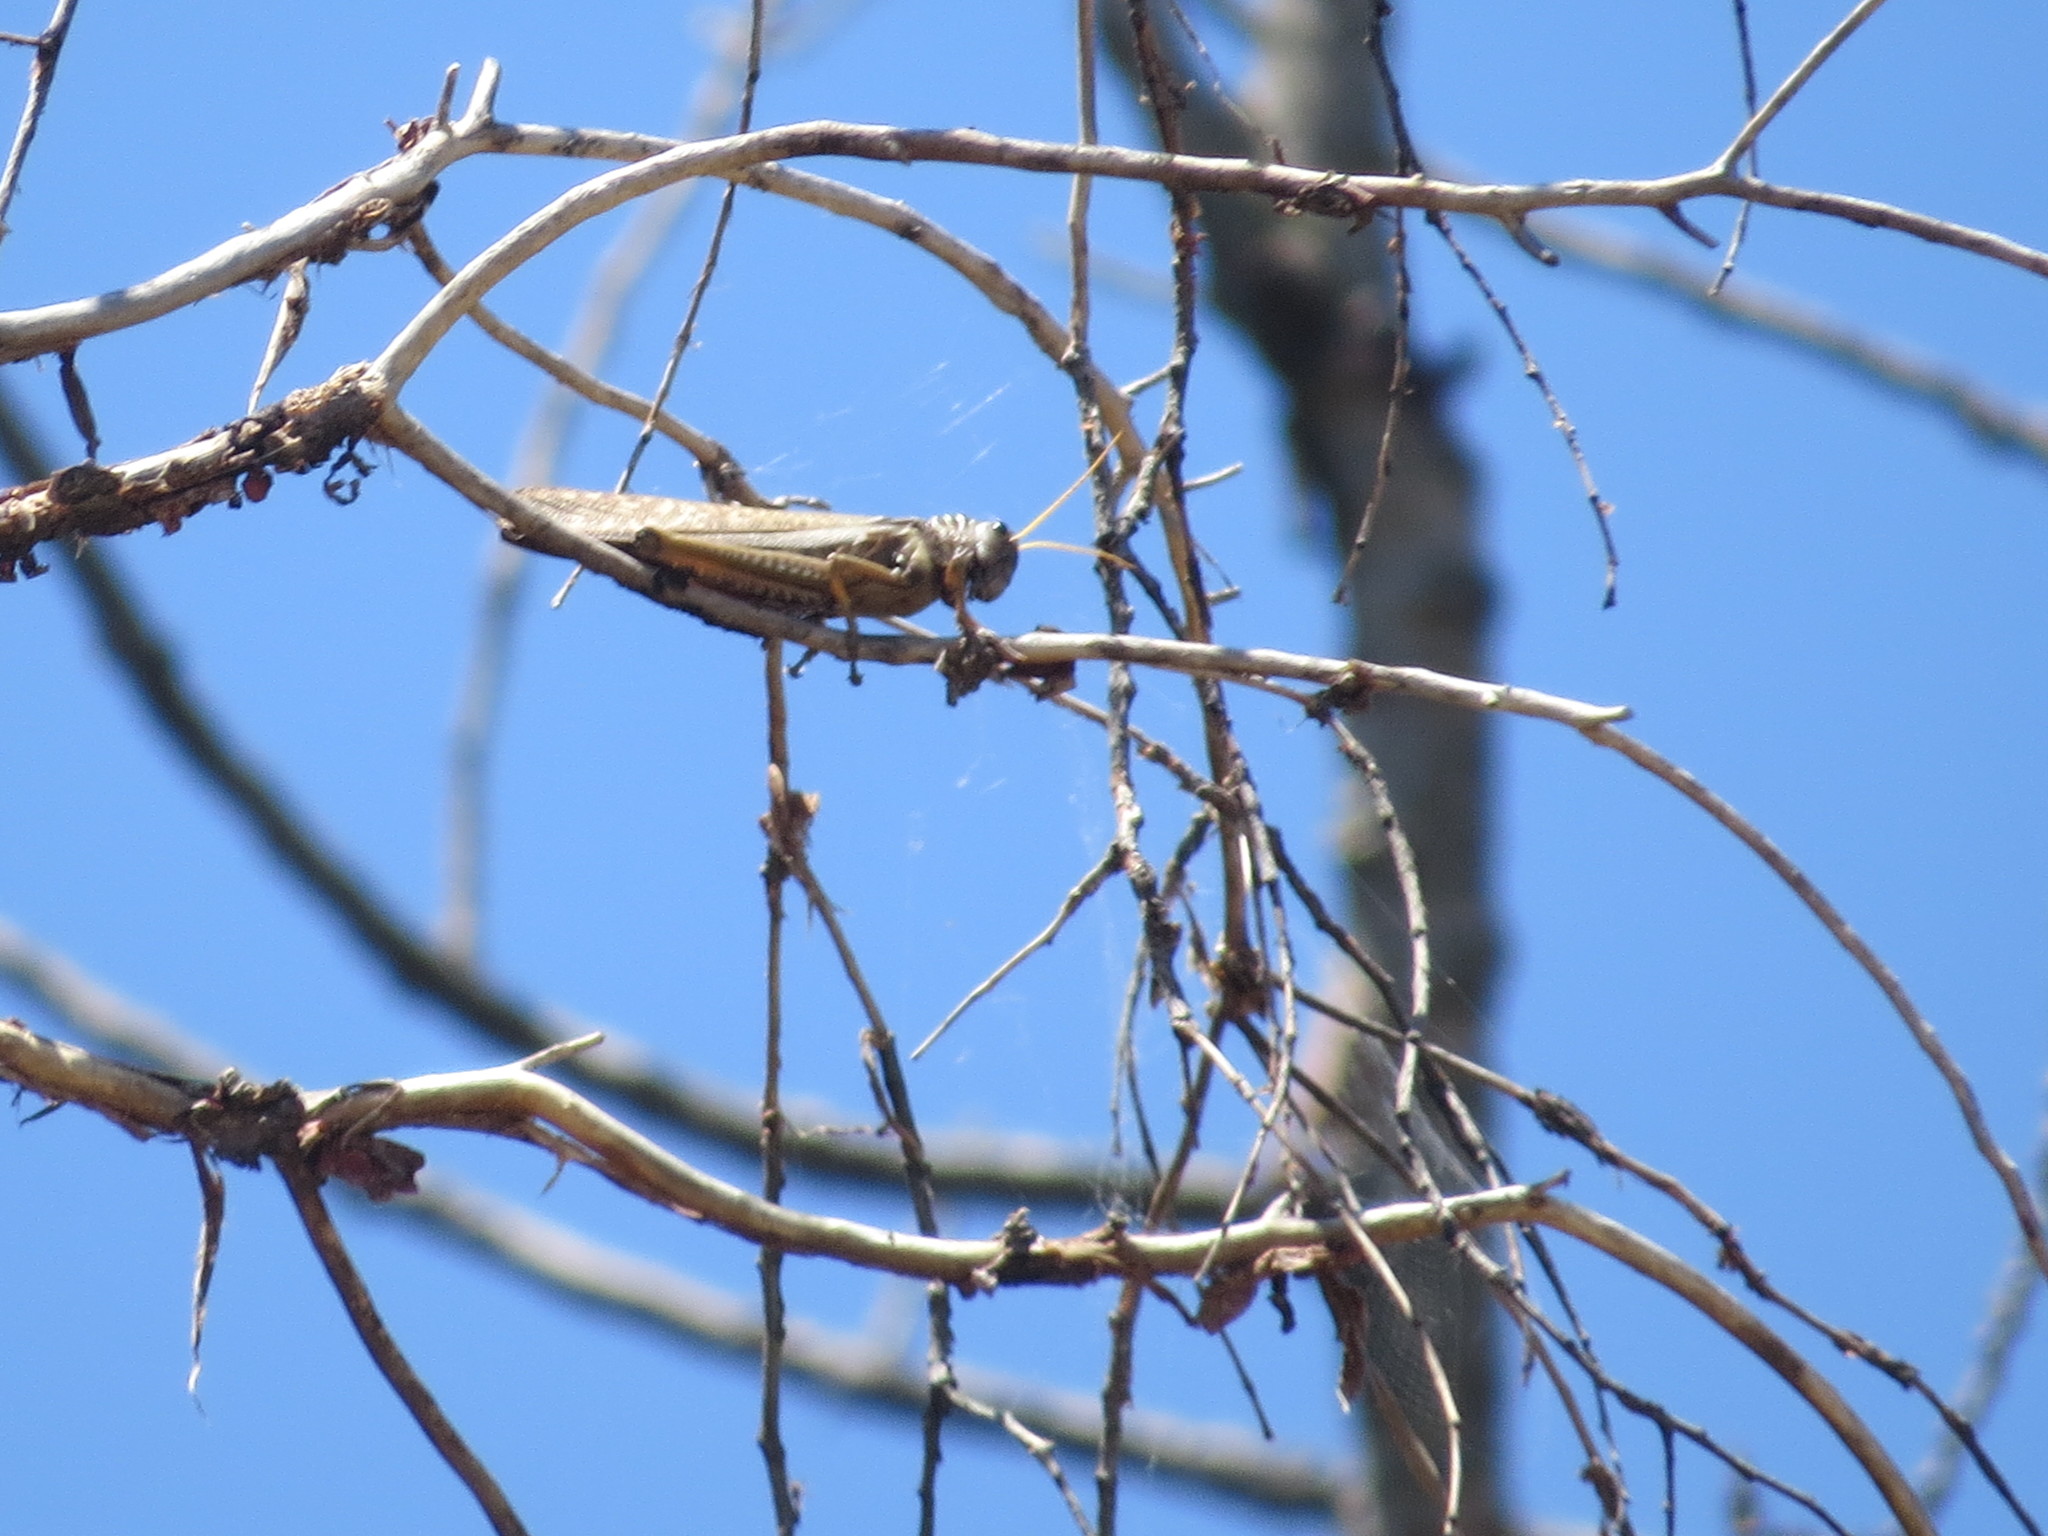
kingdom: Animalia
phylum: Arthropoda
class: Insecta
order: Orthoptera
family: Romaleidae
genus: Tropidacris
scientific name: Tropidacris collaris
